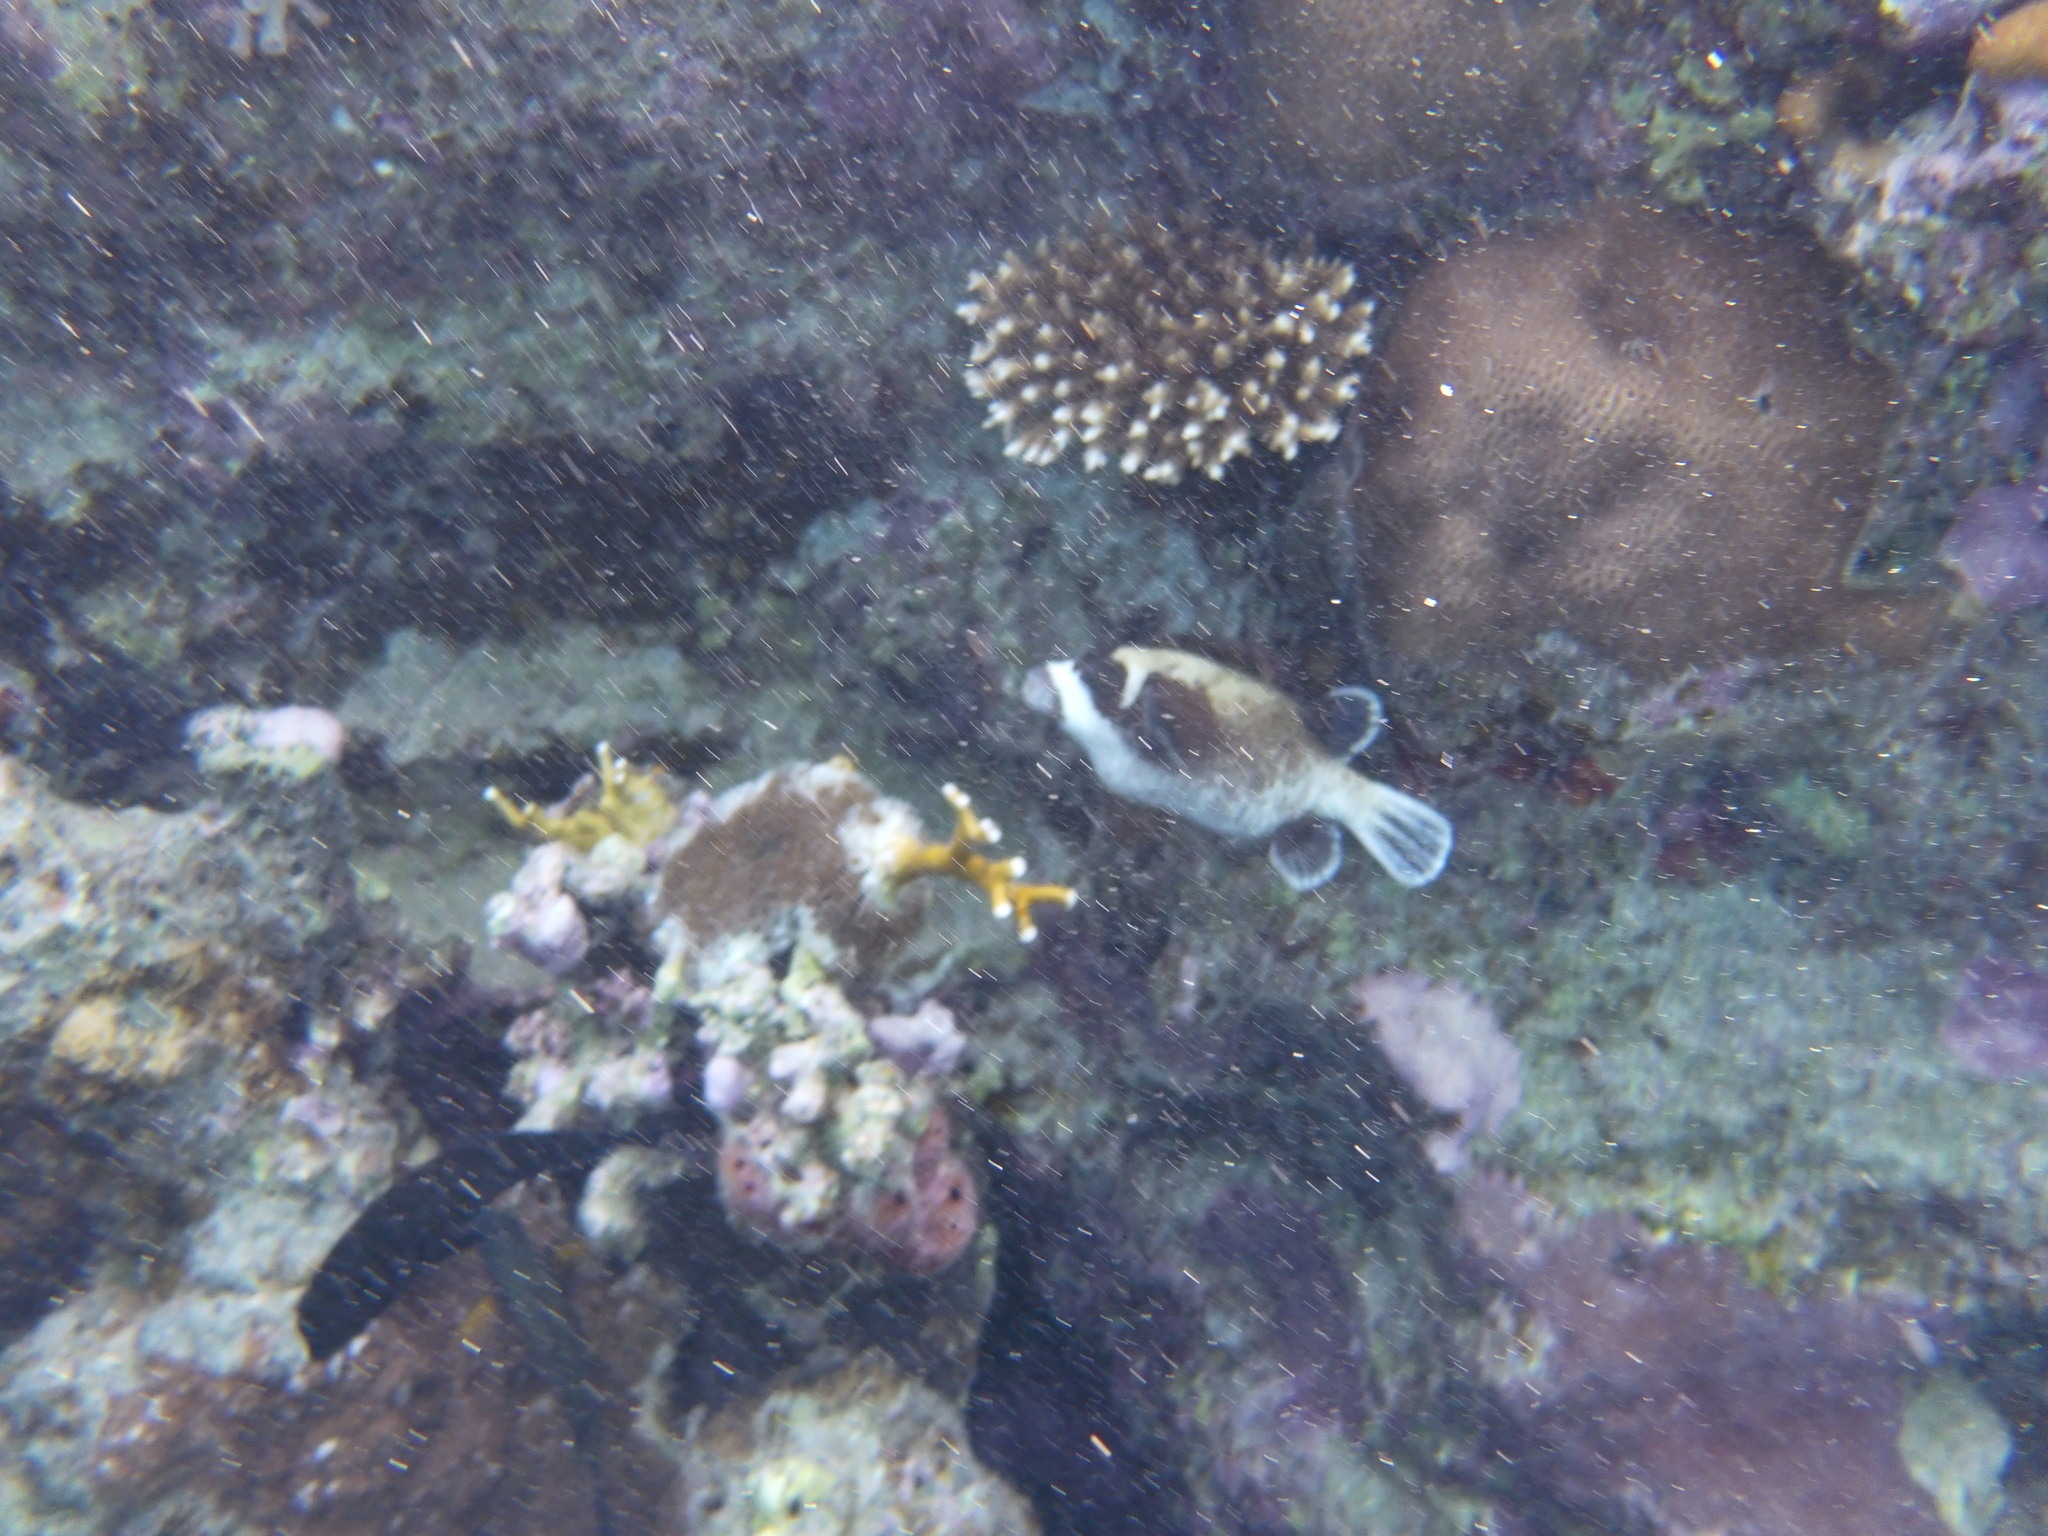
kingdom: Animalia
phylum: Chordata
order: Tetraodontiformes
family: Tetraodontidae
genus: Arothron
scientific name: Arothron diadematus
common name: Masked puffer
